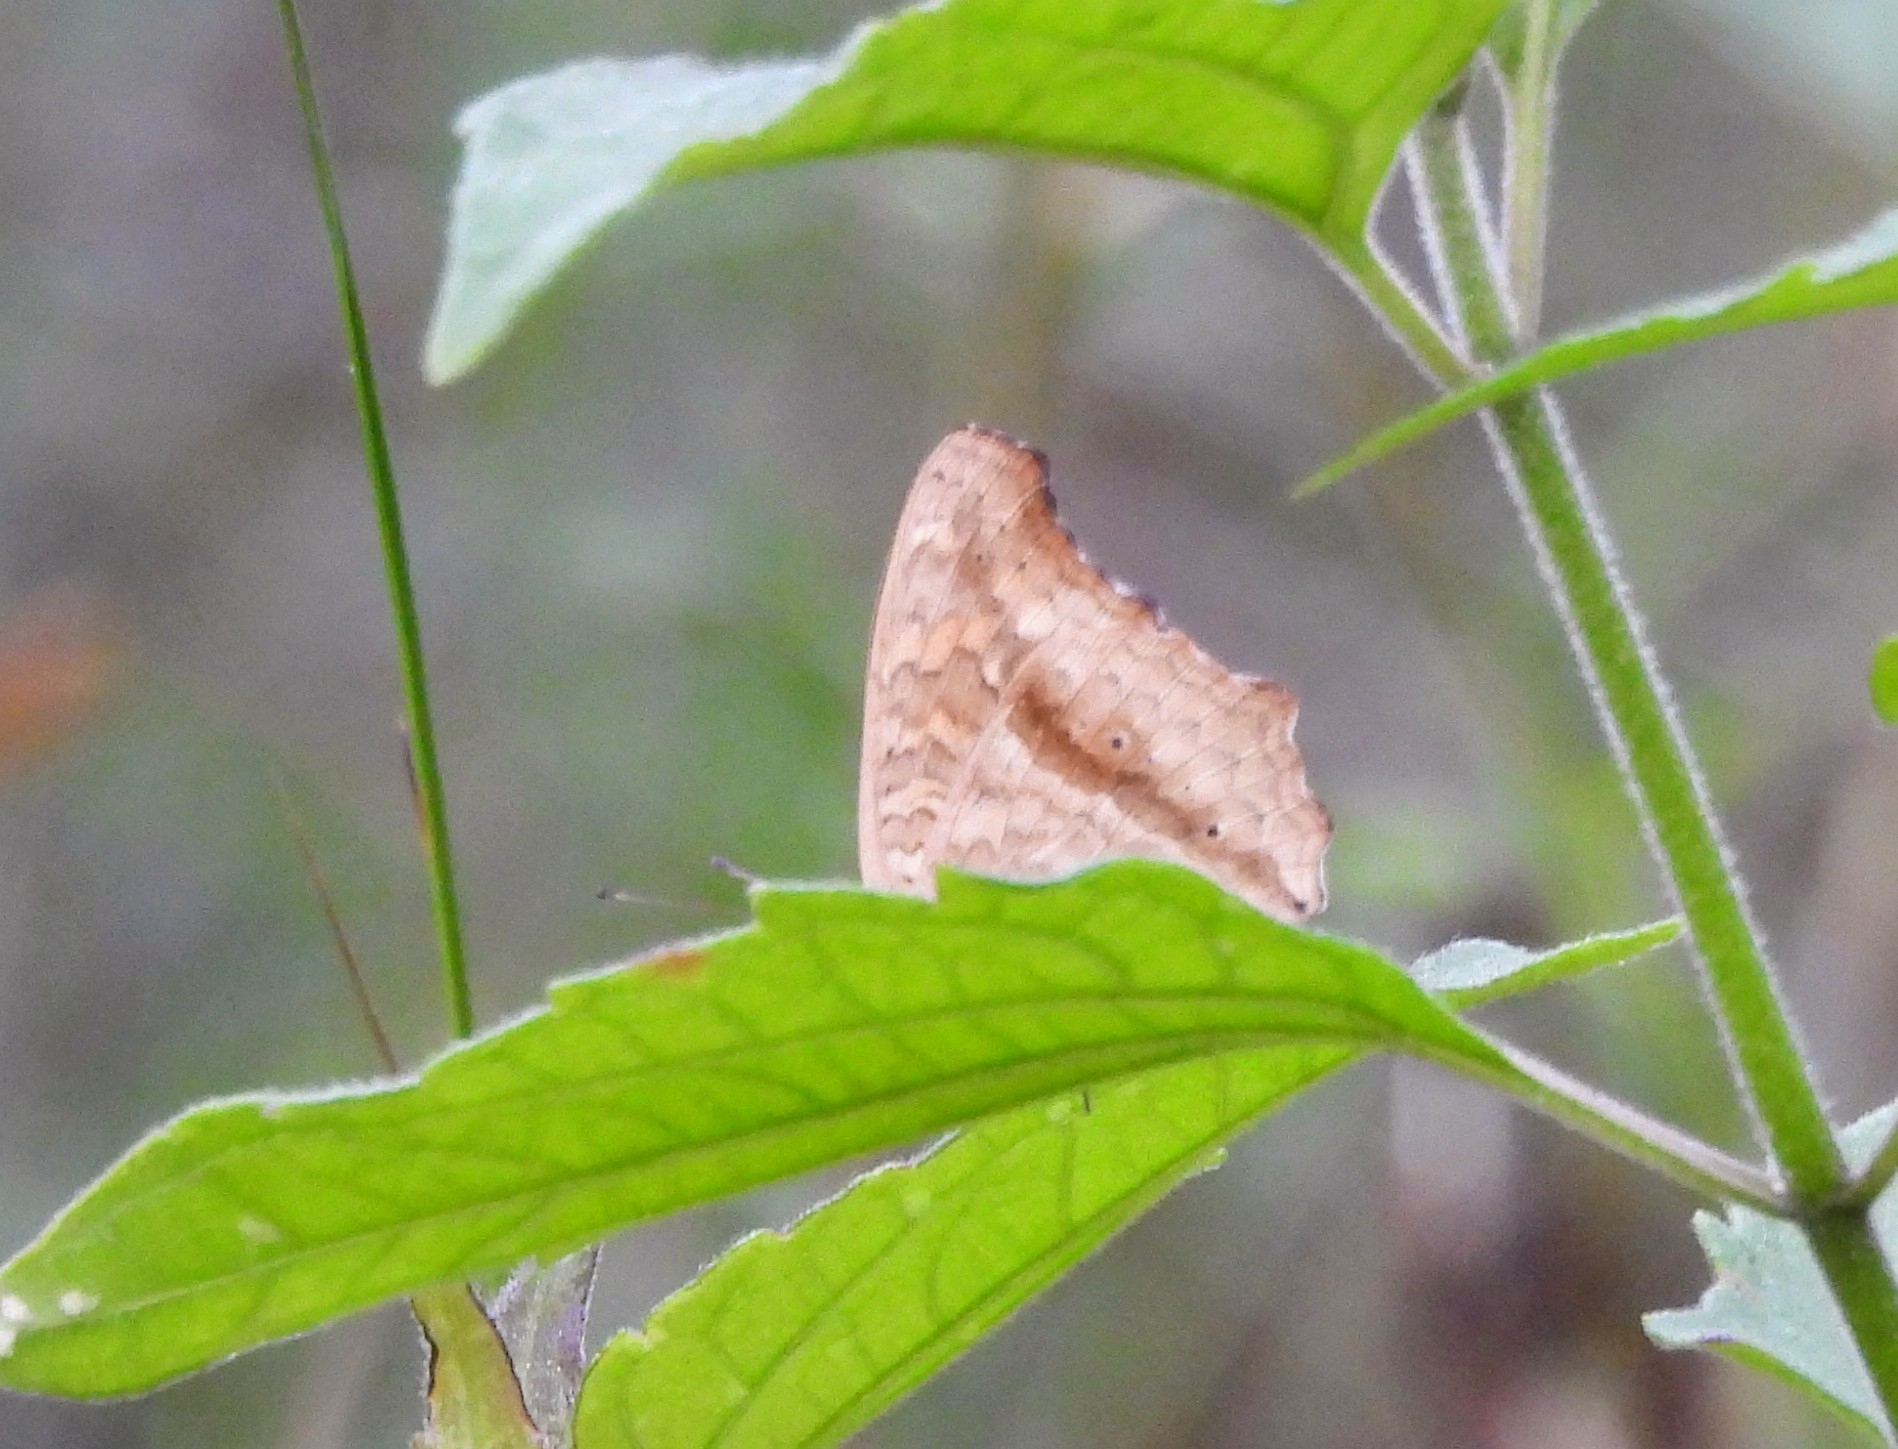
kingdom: Animalia
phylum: Arthropoda
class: Insecta
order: Lepidoptera
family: Nymphalidae
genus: Junonia
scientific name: Junonia lemonias
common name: Lemon pansy
